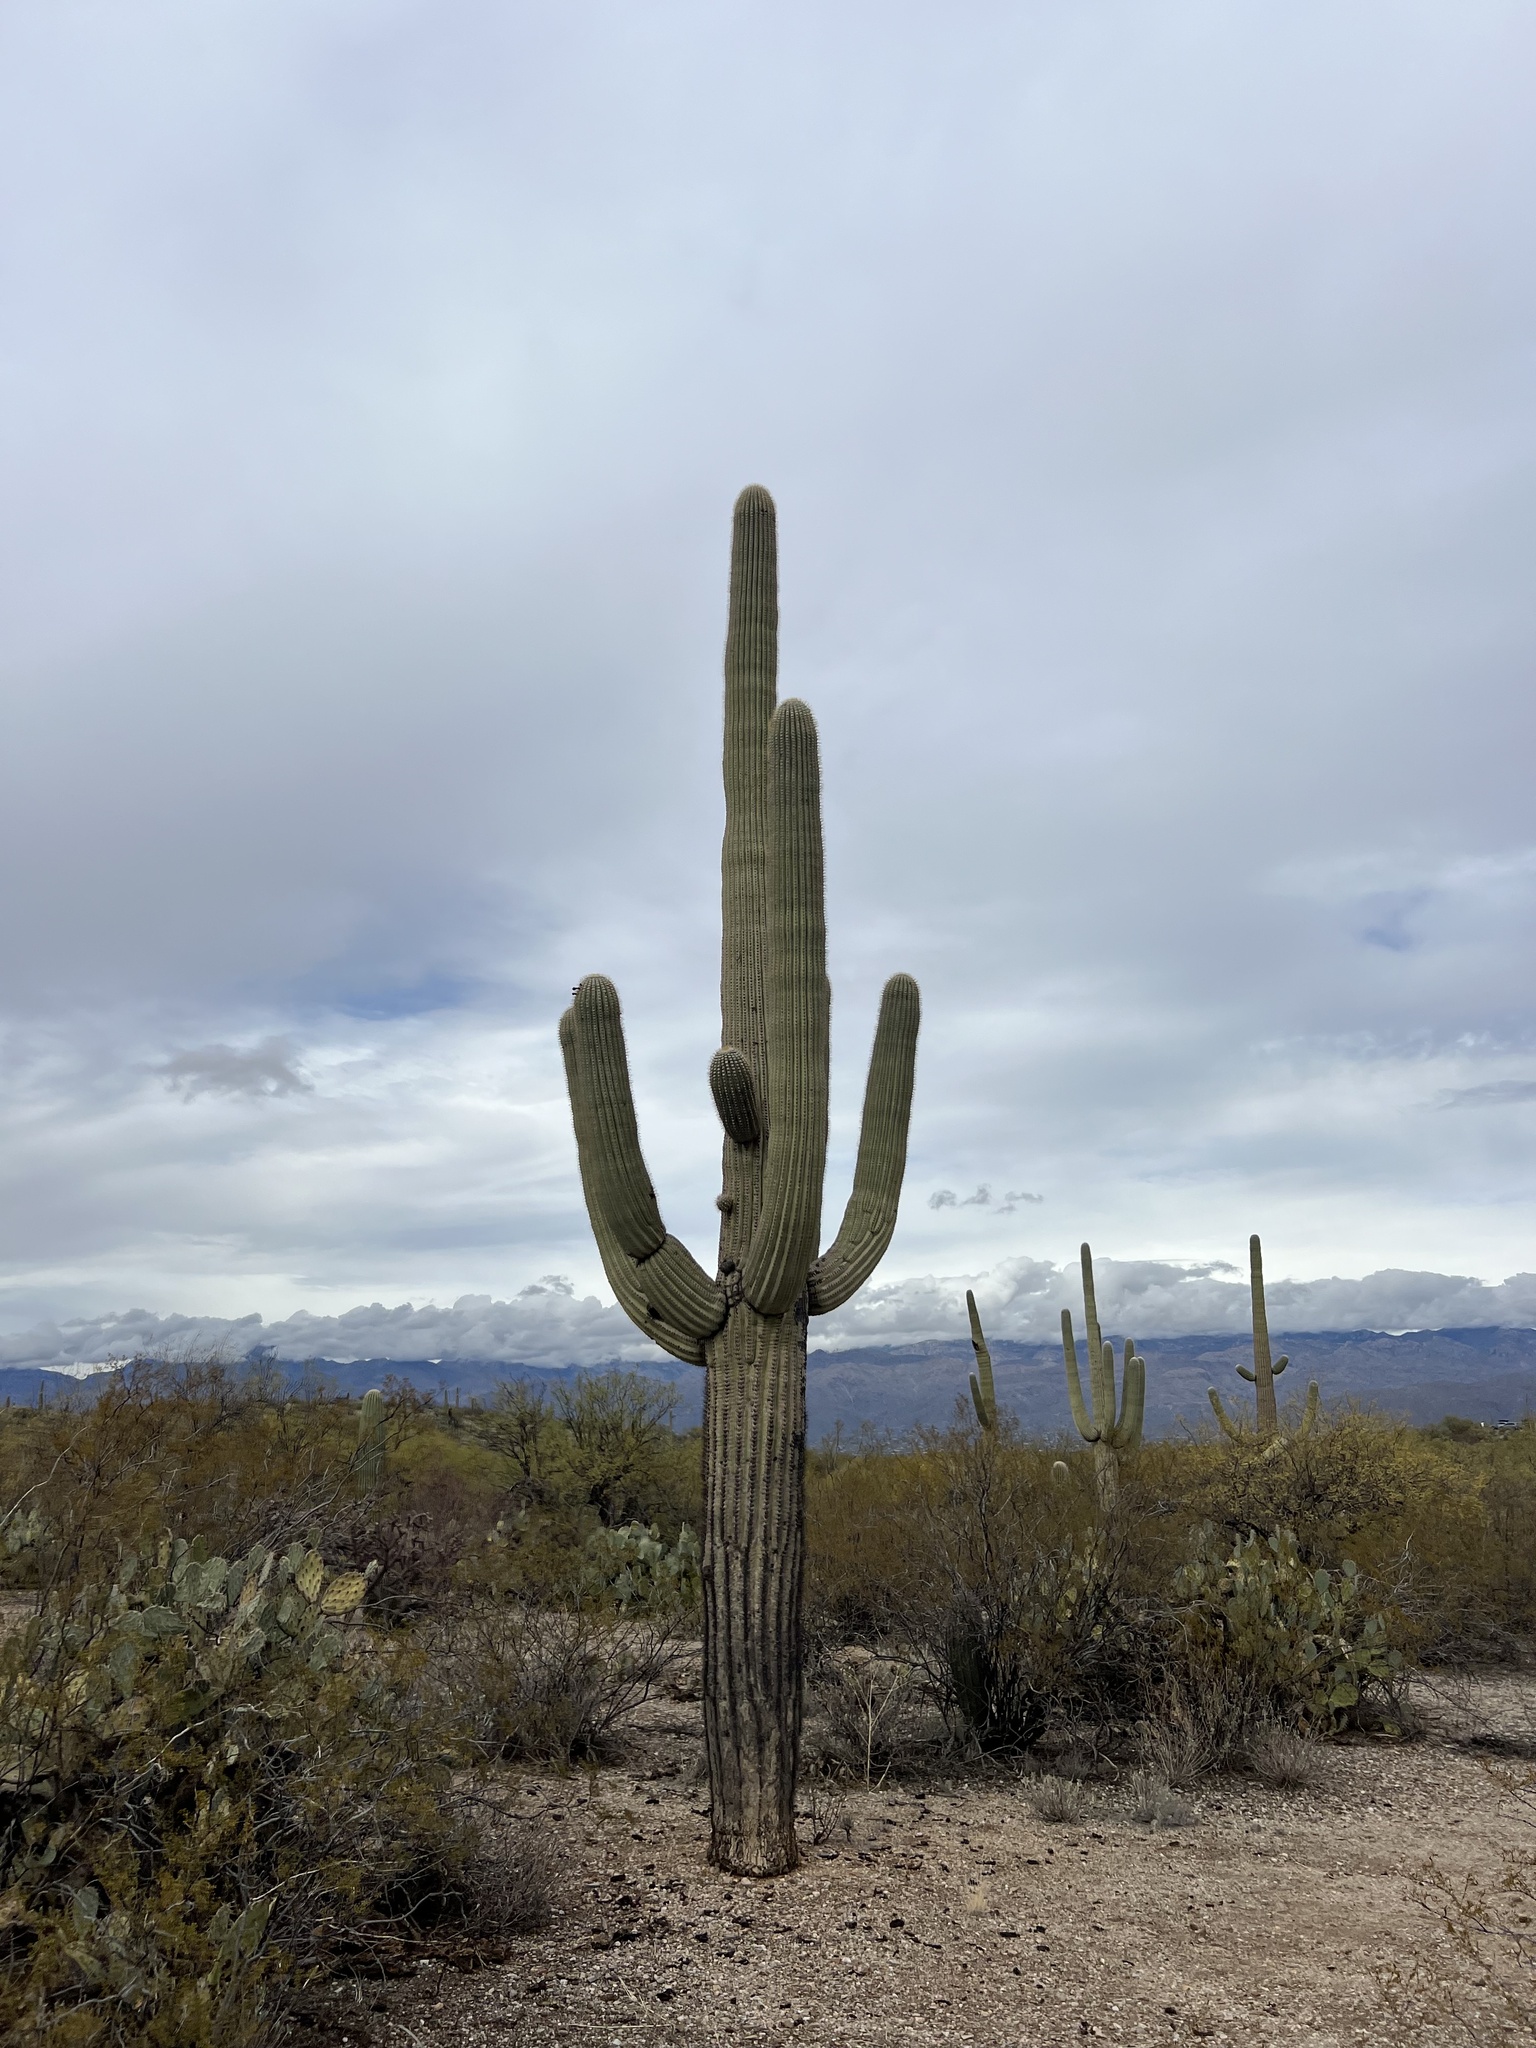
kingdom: Plantae
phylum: Tracheophyta
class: Magnoliopsida
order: Caryophyllales
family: Cactaceae
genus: Carnegiea
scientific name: Carnegiea gigantea
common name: Saguaro
